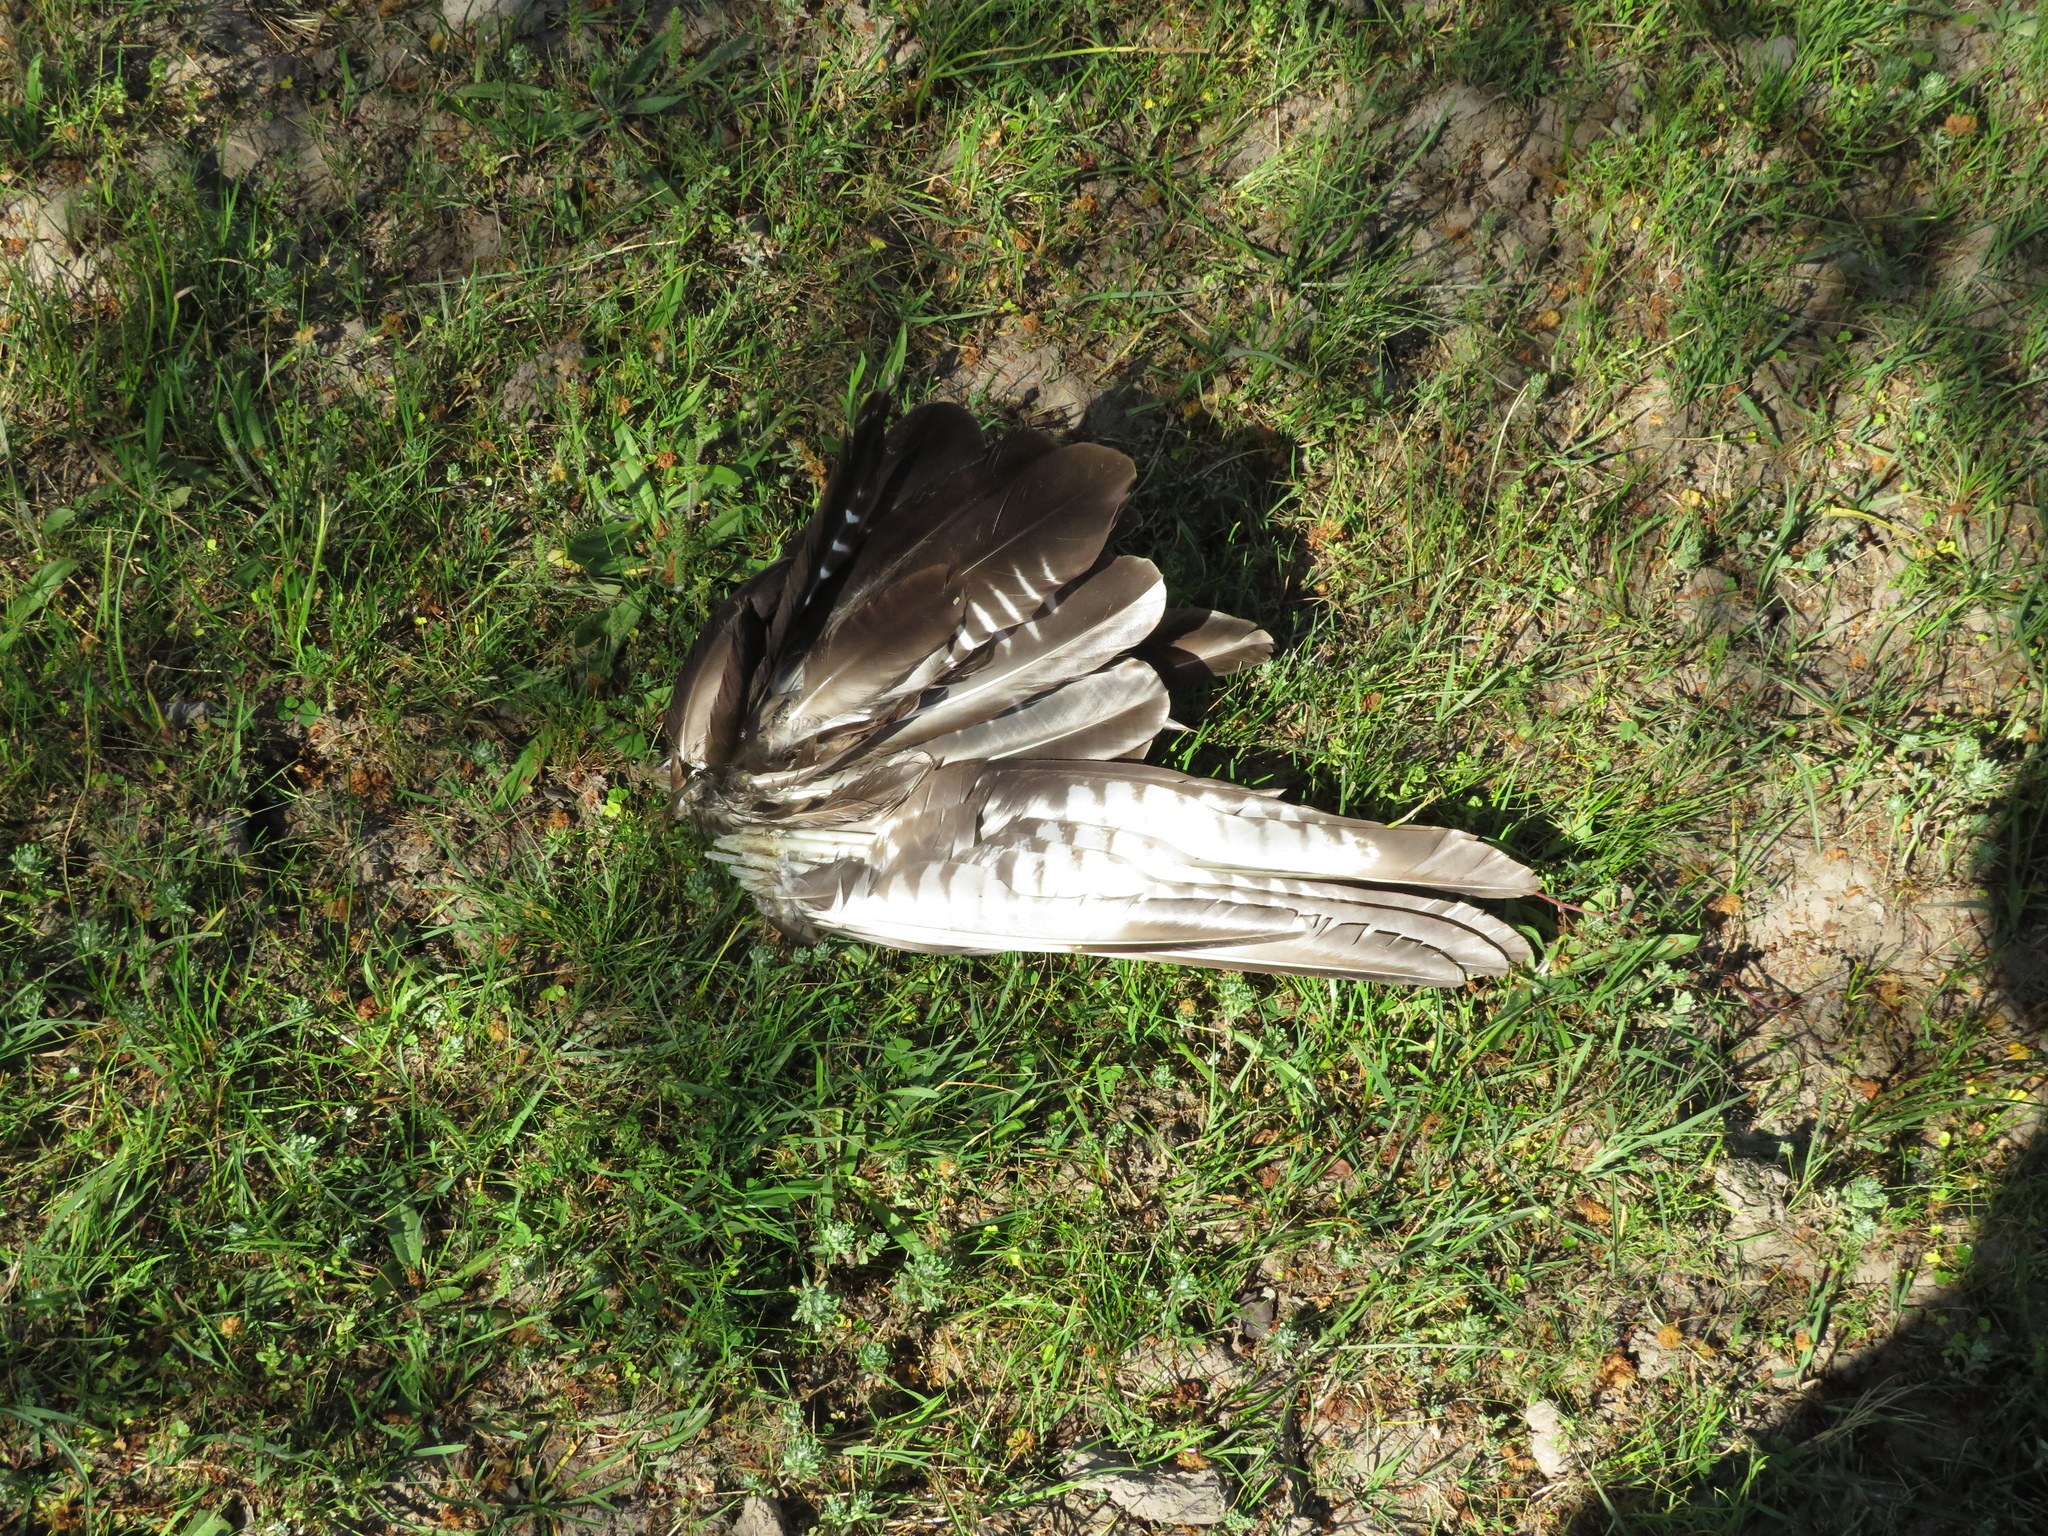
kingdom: Animalia
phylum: Chordata
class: Aves
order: Falconiformes
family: Falconidae
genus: Caracara
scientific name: Caracara plancus
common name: Southern caracara
